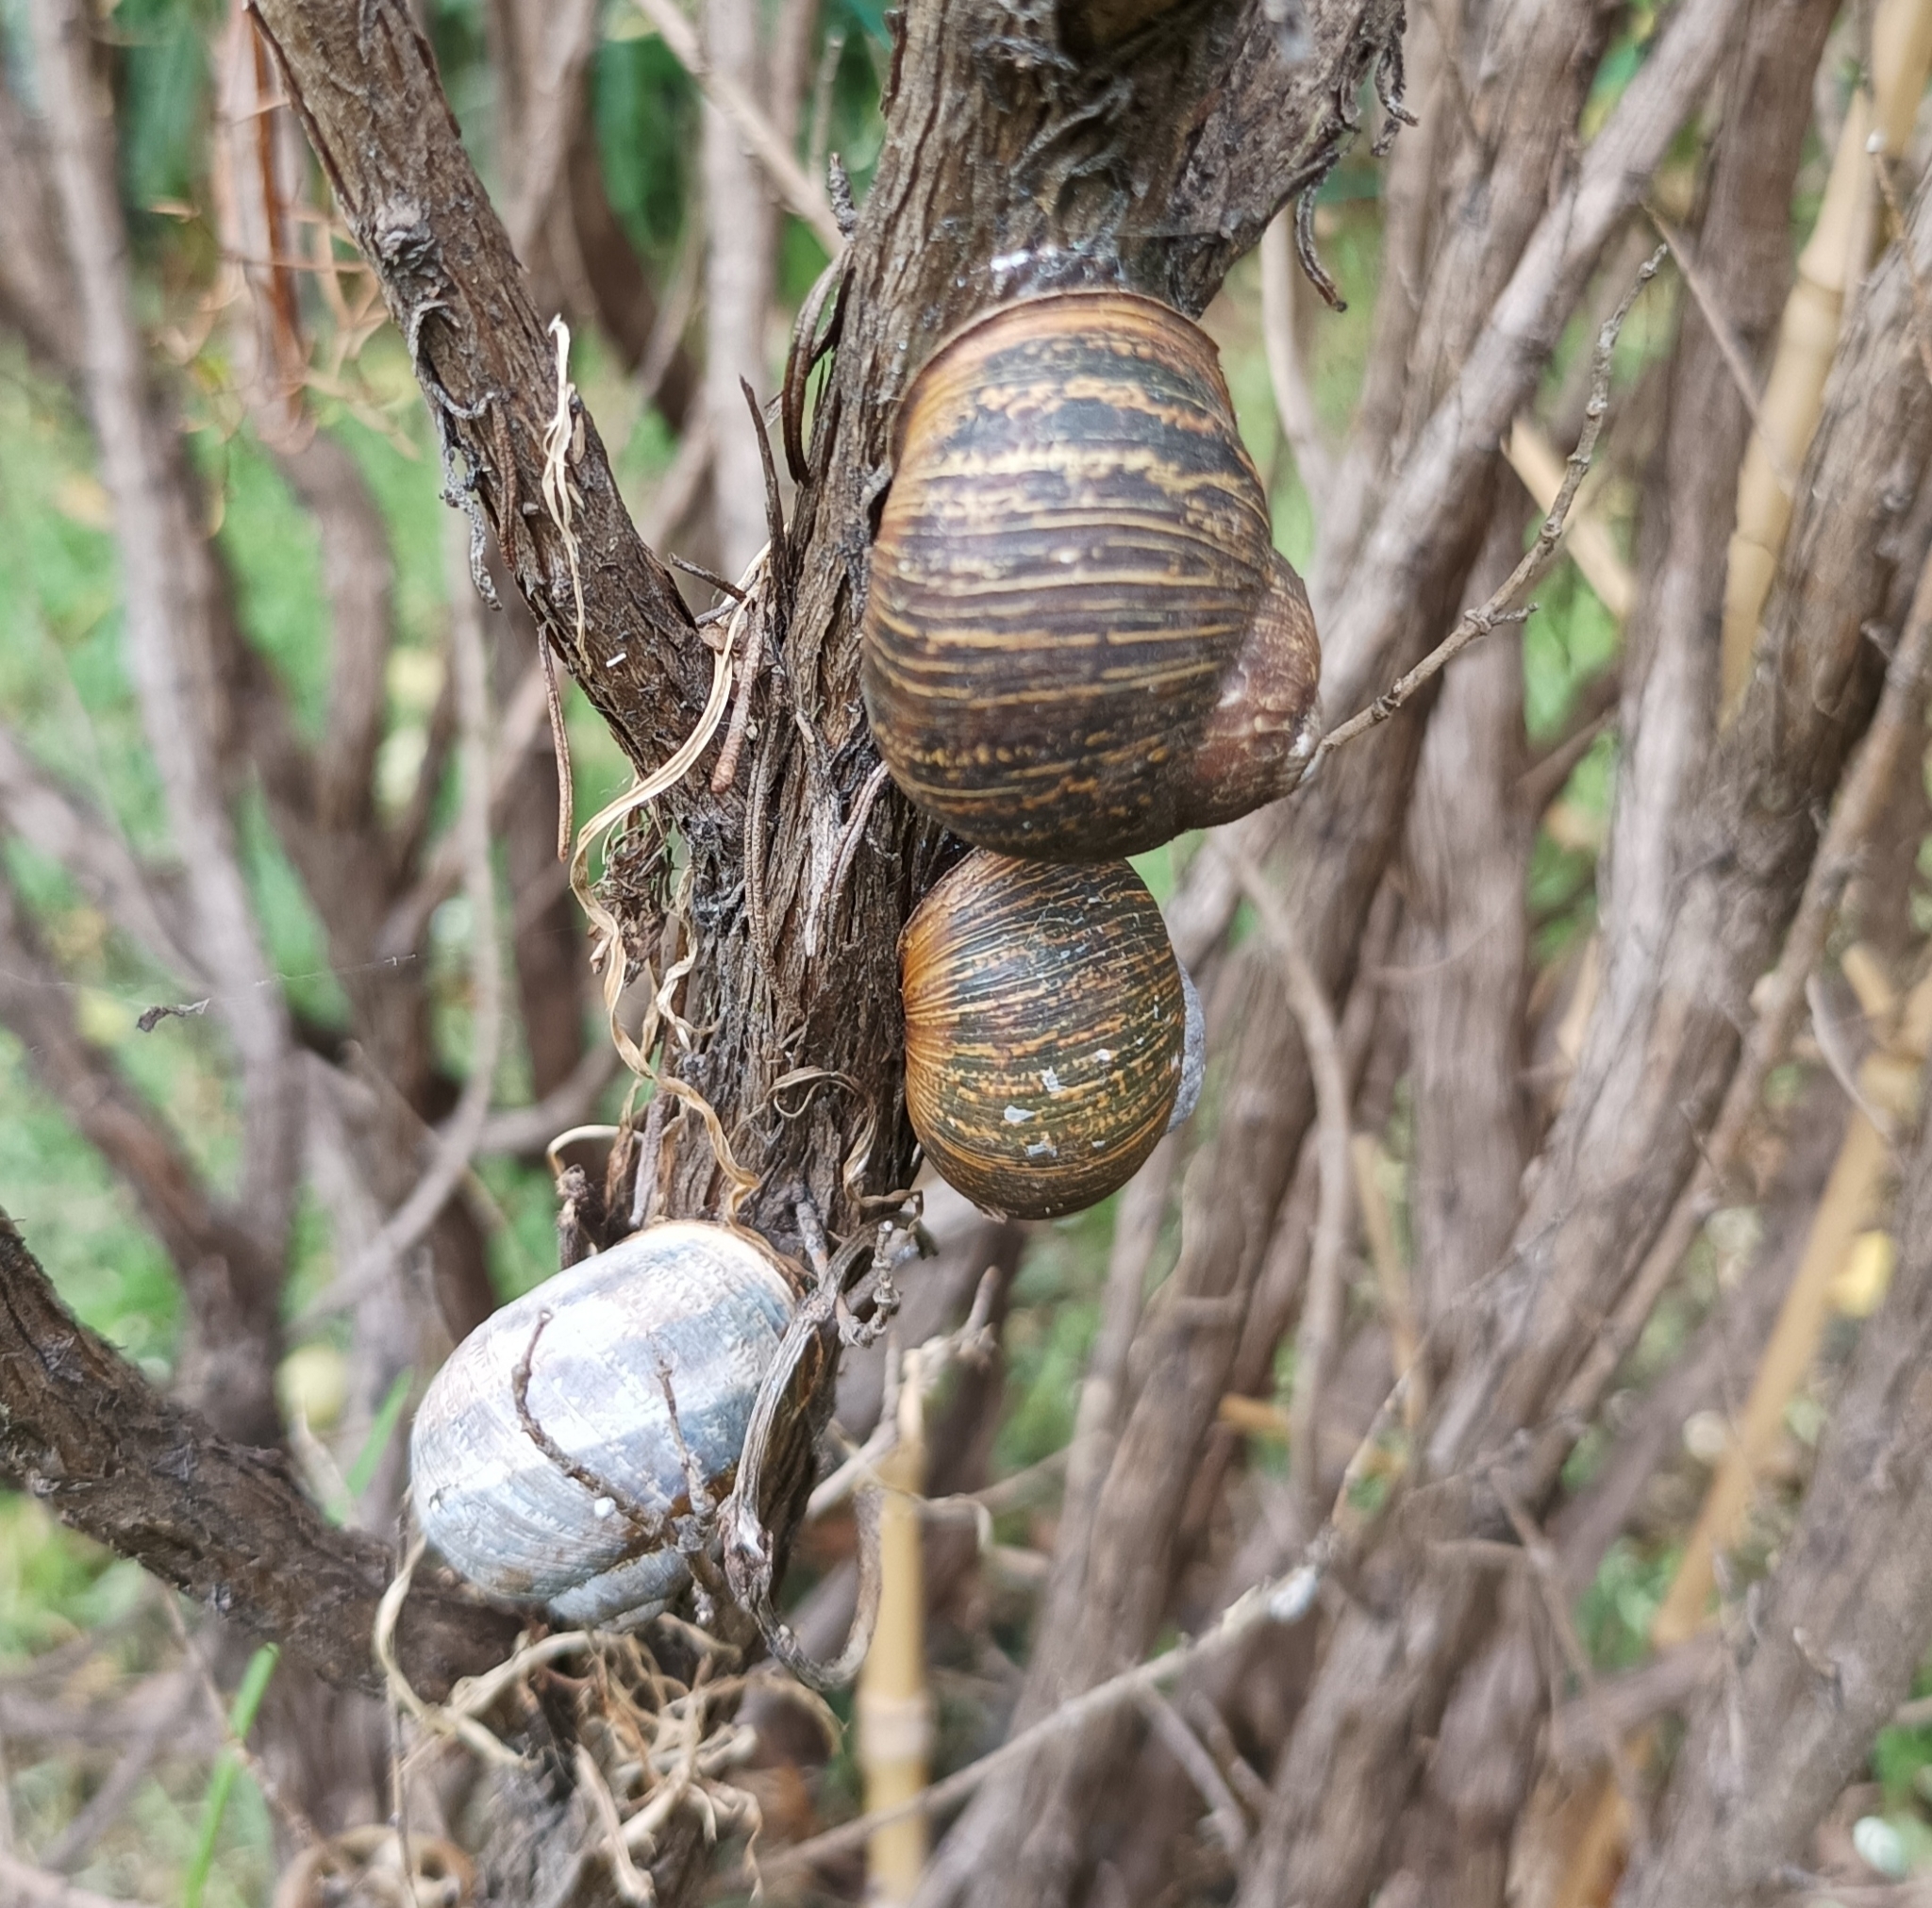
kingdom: Animalia
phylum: Mollusca
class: Gastropoda
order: Stylommatophora
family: Helicidae
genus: Cornu
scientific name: Cornu aspersum
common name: Brown garden snail
